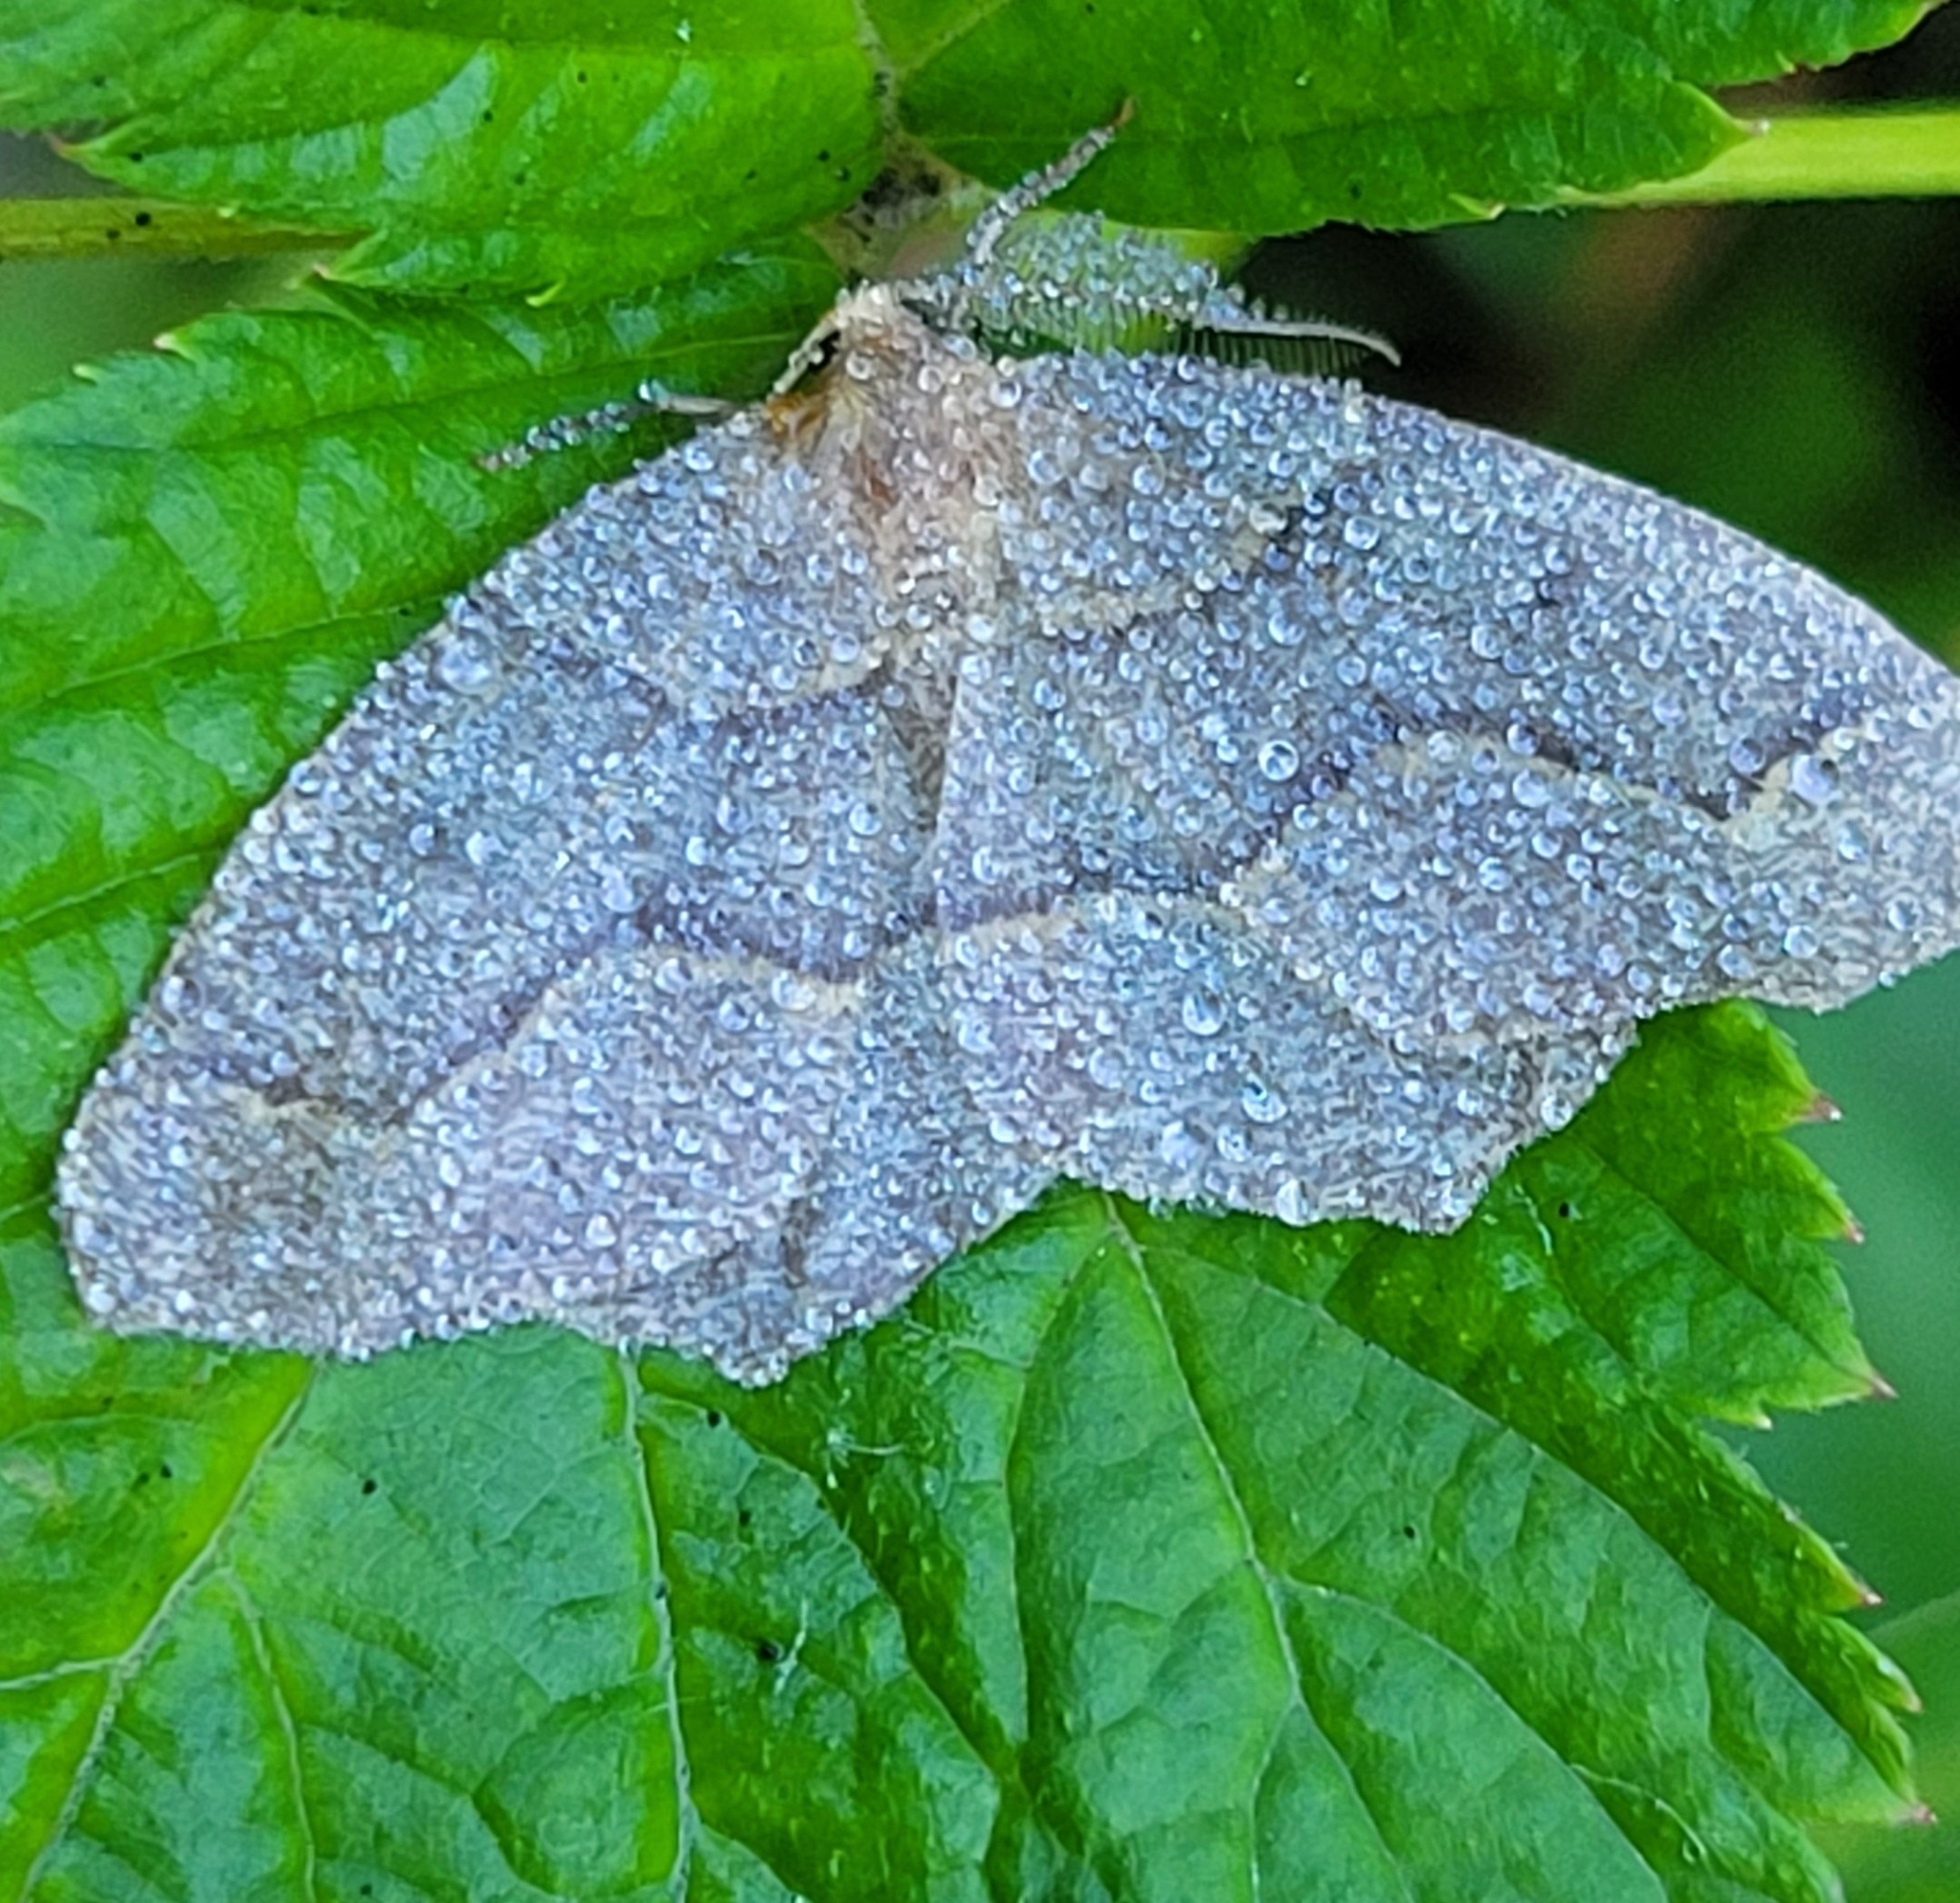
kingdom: Animalia
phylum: Arthropoda
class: Insecta
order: Lepidoptera
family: Geometridae
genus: Lambdina
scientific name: Lambdina fiscellaria
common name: Hemlock looper
